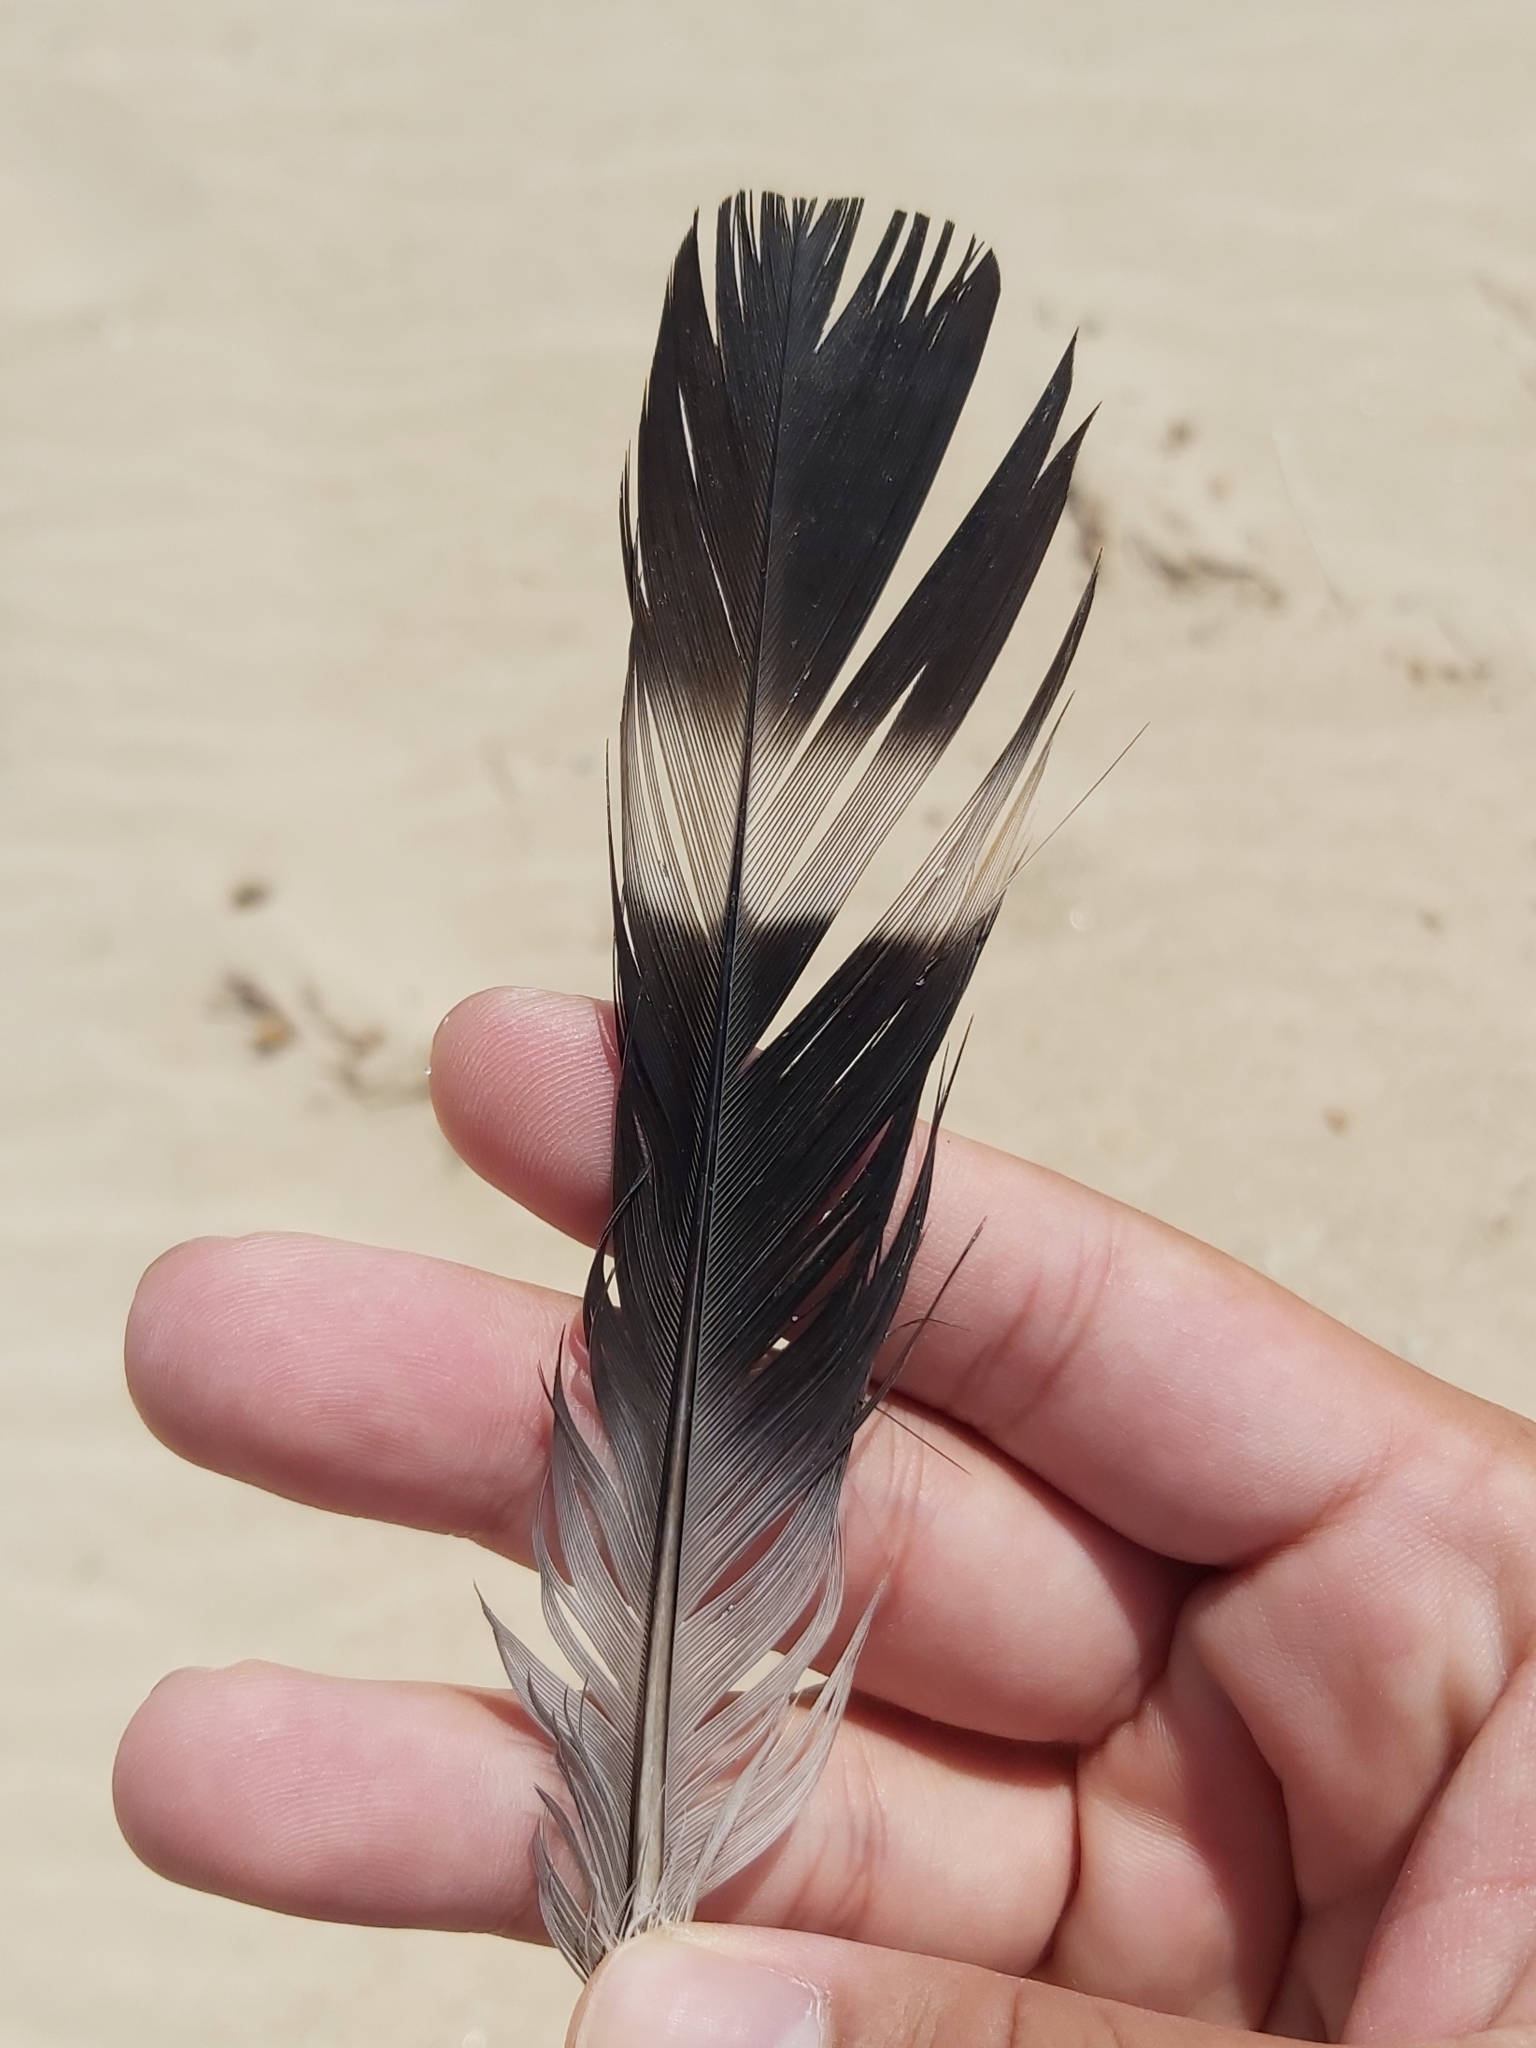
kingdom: Animalia
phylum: Chordata
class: Aves
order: Columbiformes
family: Columbidae
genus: Lopholaimus
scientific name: Lopholaimus antarcticus
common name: Topknot pigeon
